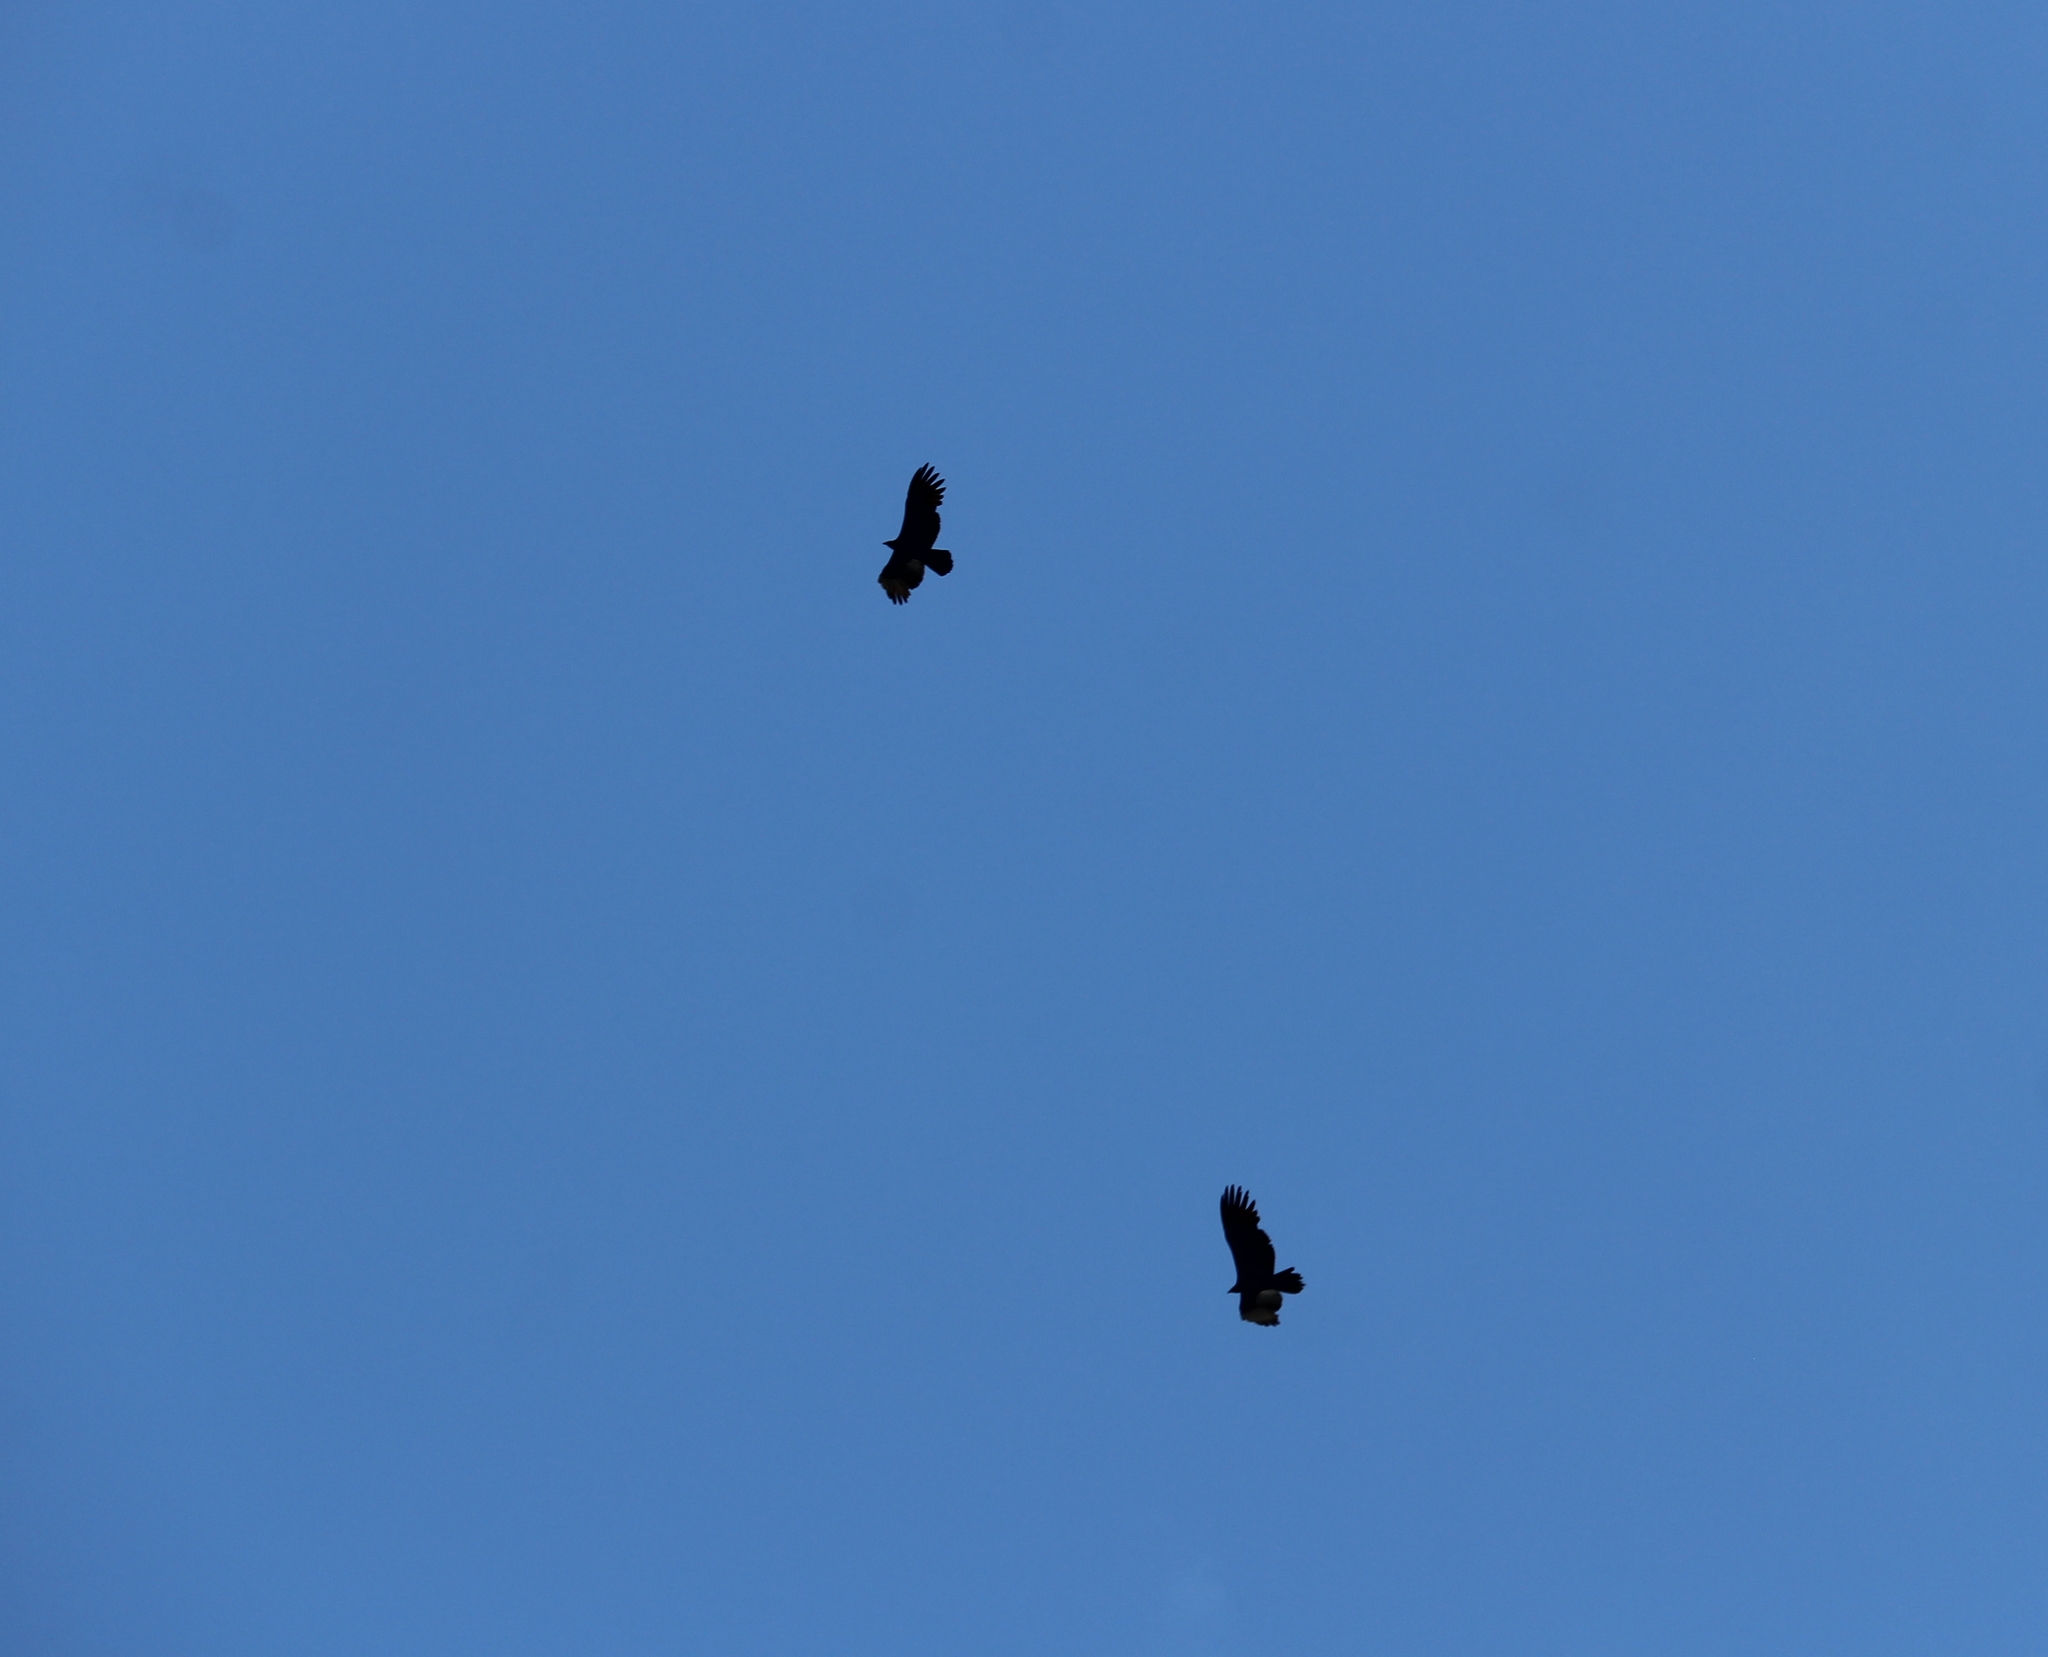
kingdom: Animalia
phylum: Chordata
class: Aves
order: Accipitriformes
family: Cathartidae
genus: Coragyps
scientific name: Coragyps atratus
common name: Black vulture
